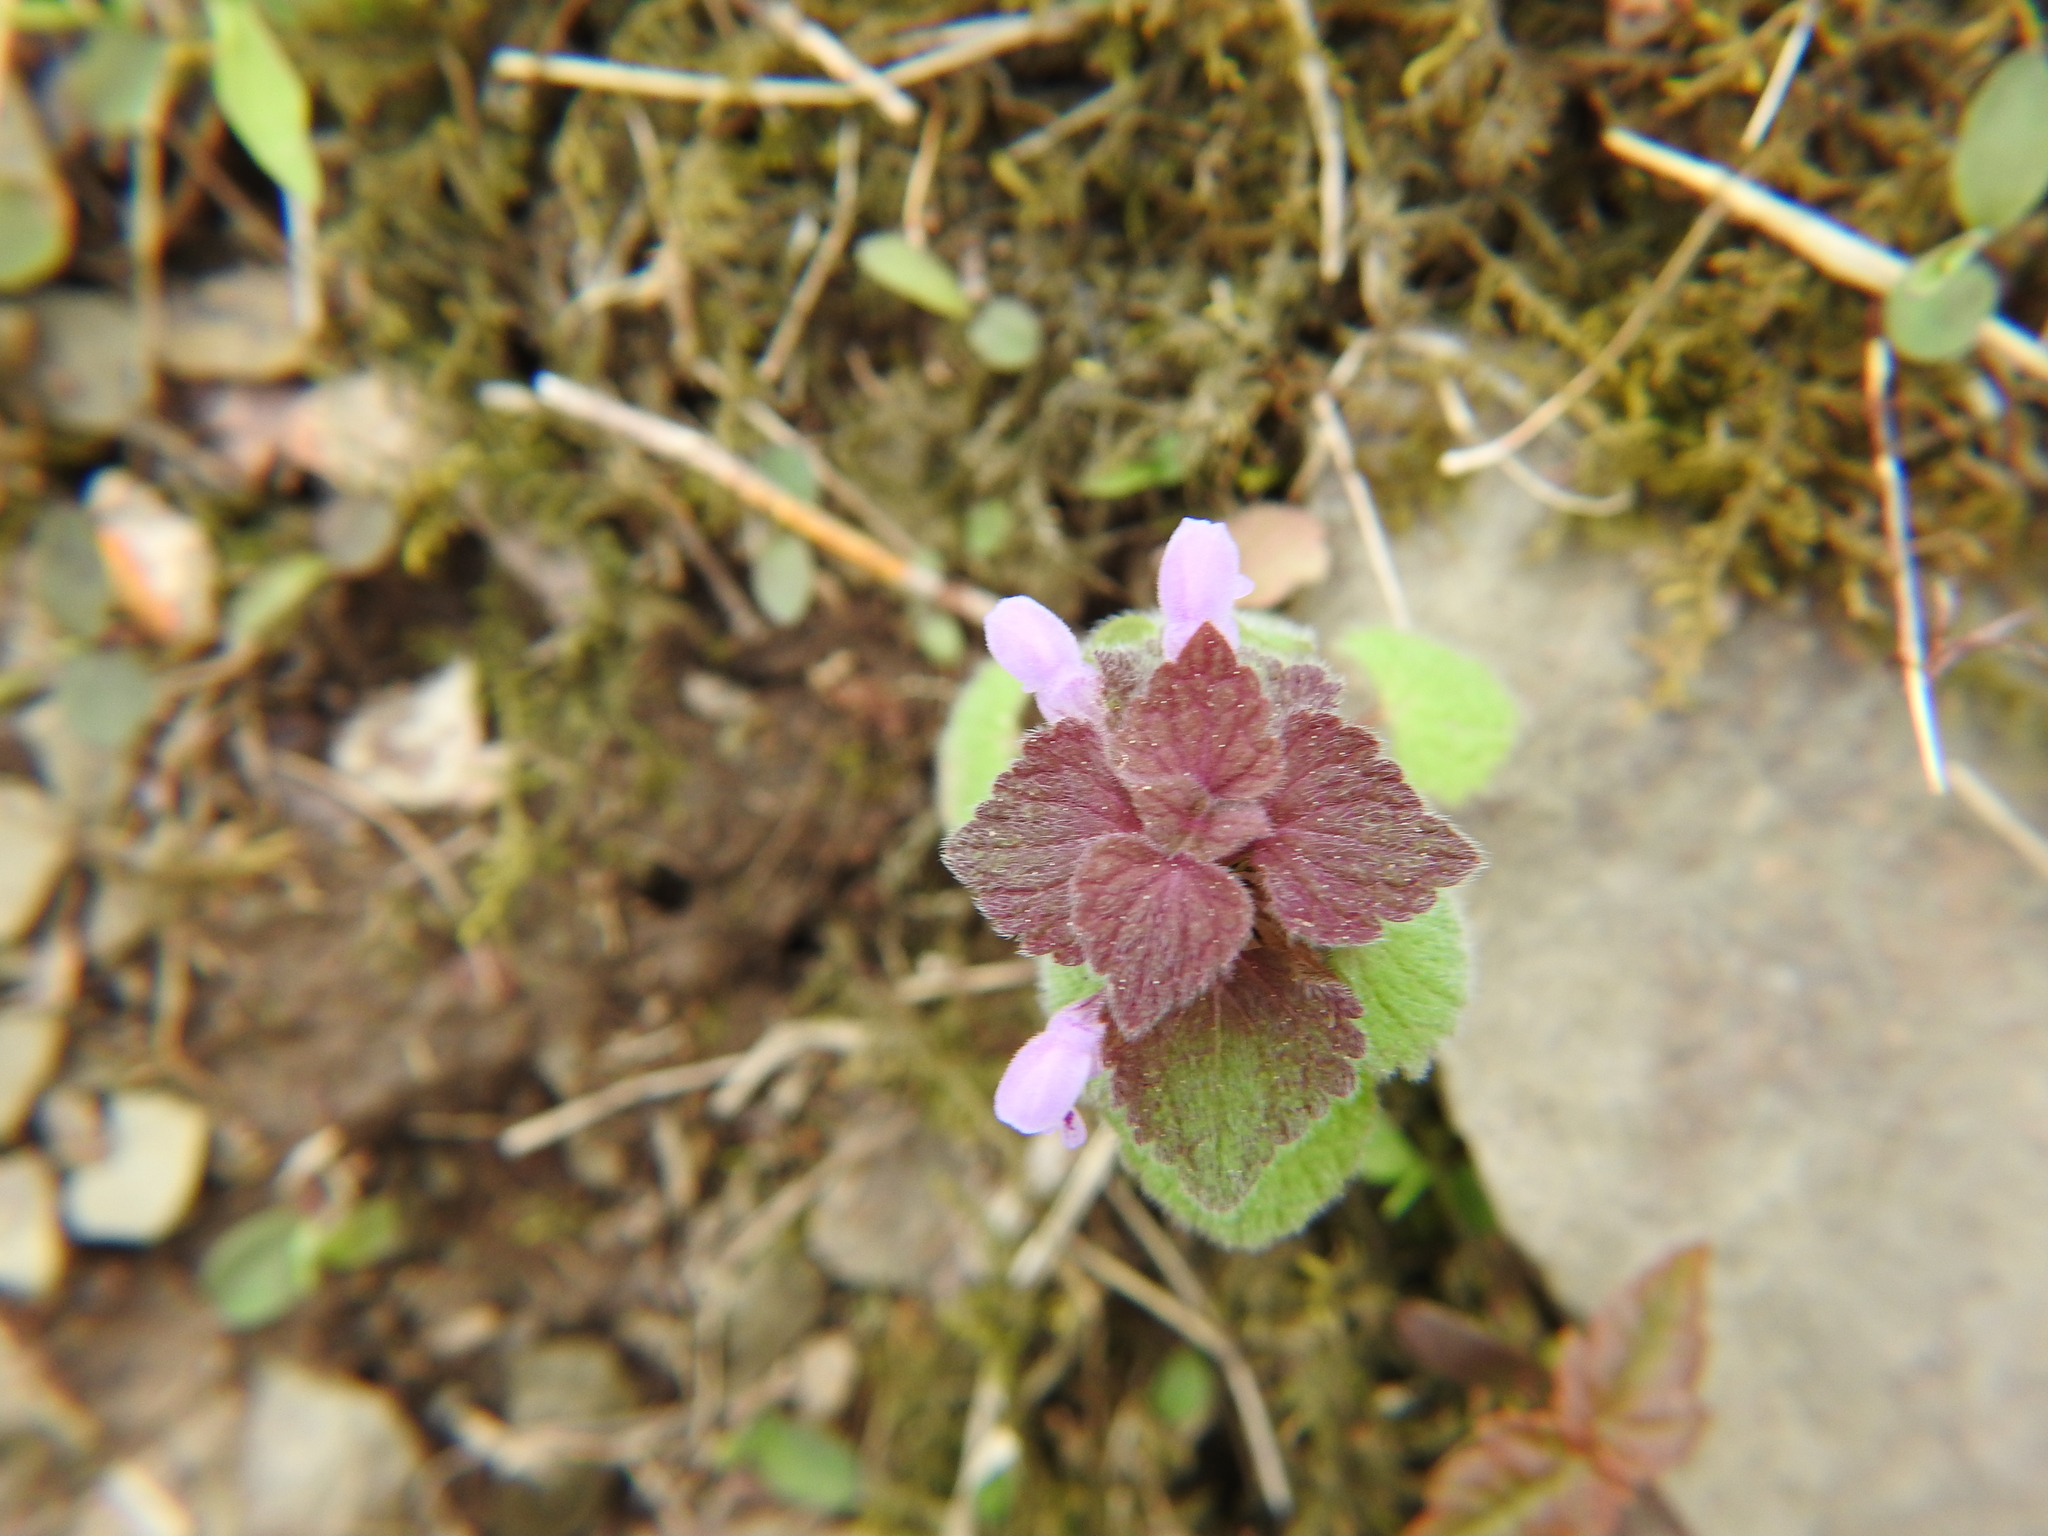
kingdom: Plantae
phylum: Tracheophyta
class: Magnoliopsida
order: Lamiales
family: Lamiaceae
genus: Lamium
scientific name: Lamium purpureum
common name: Red dead-nettle
